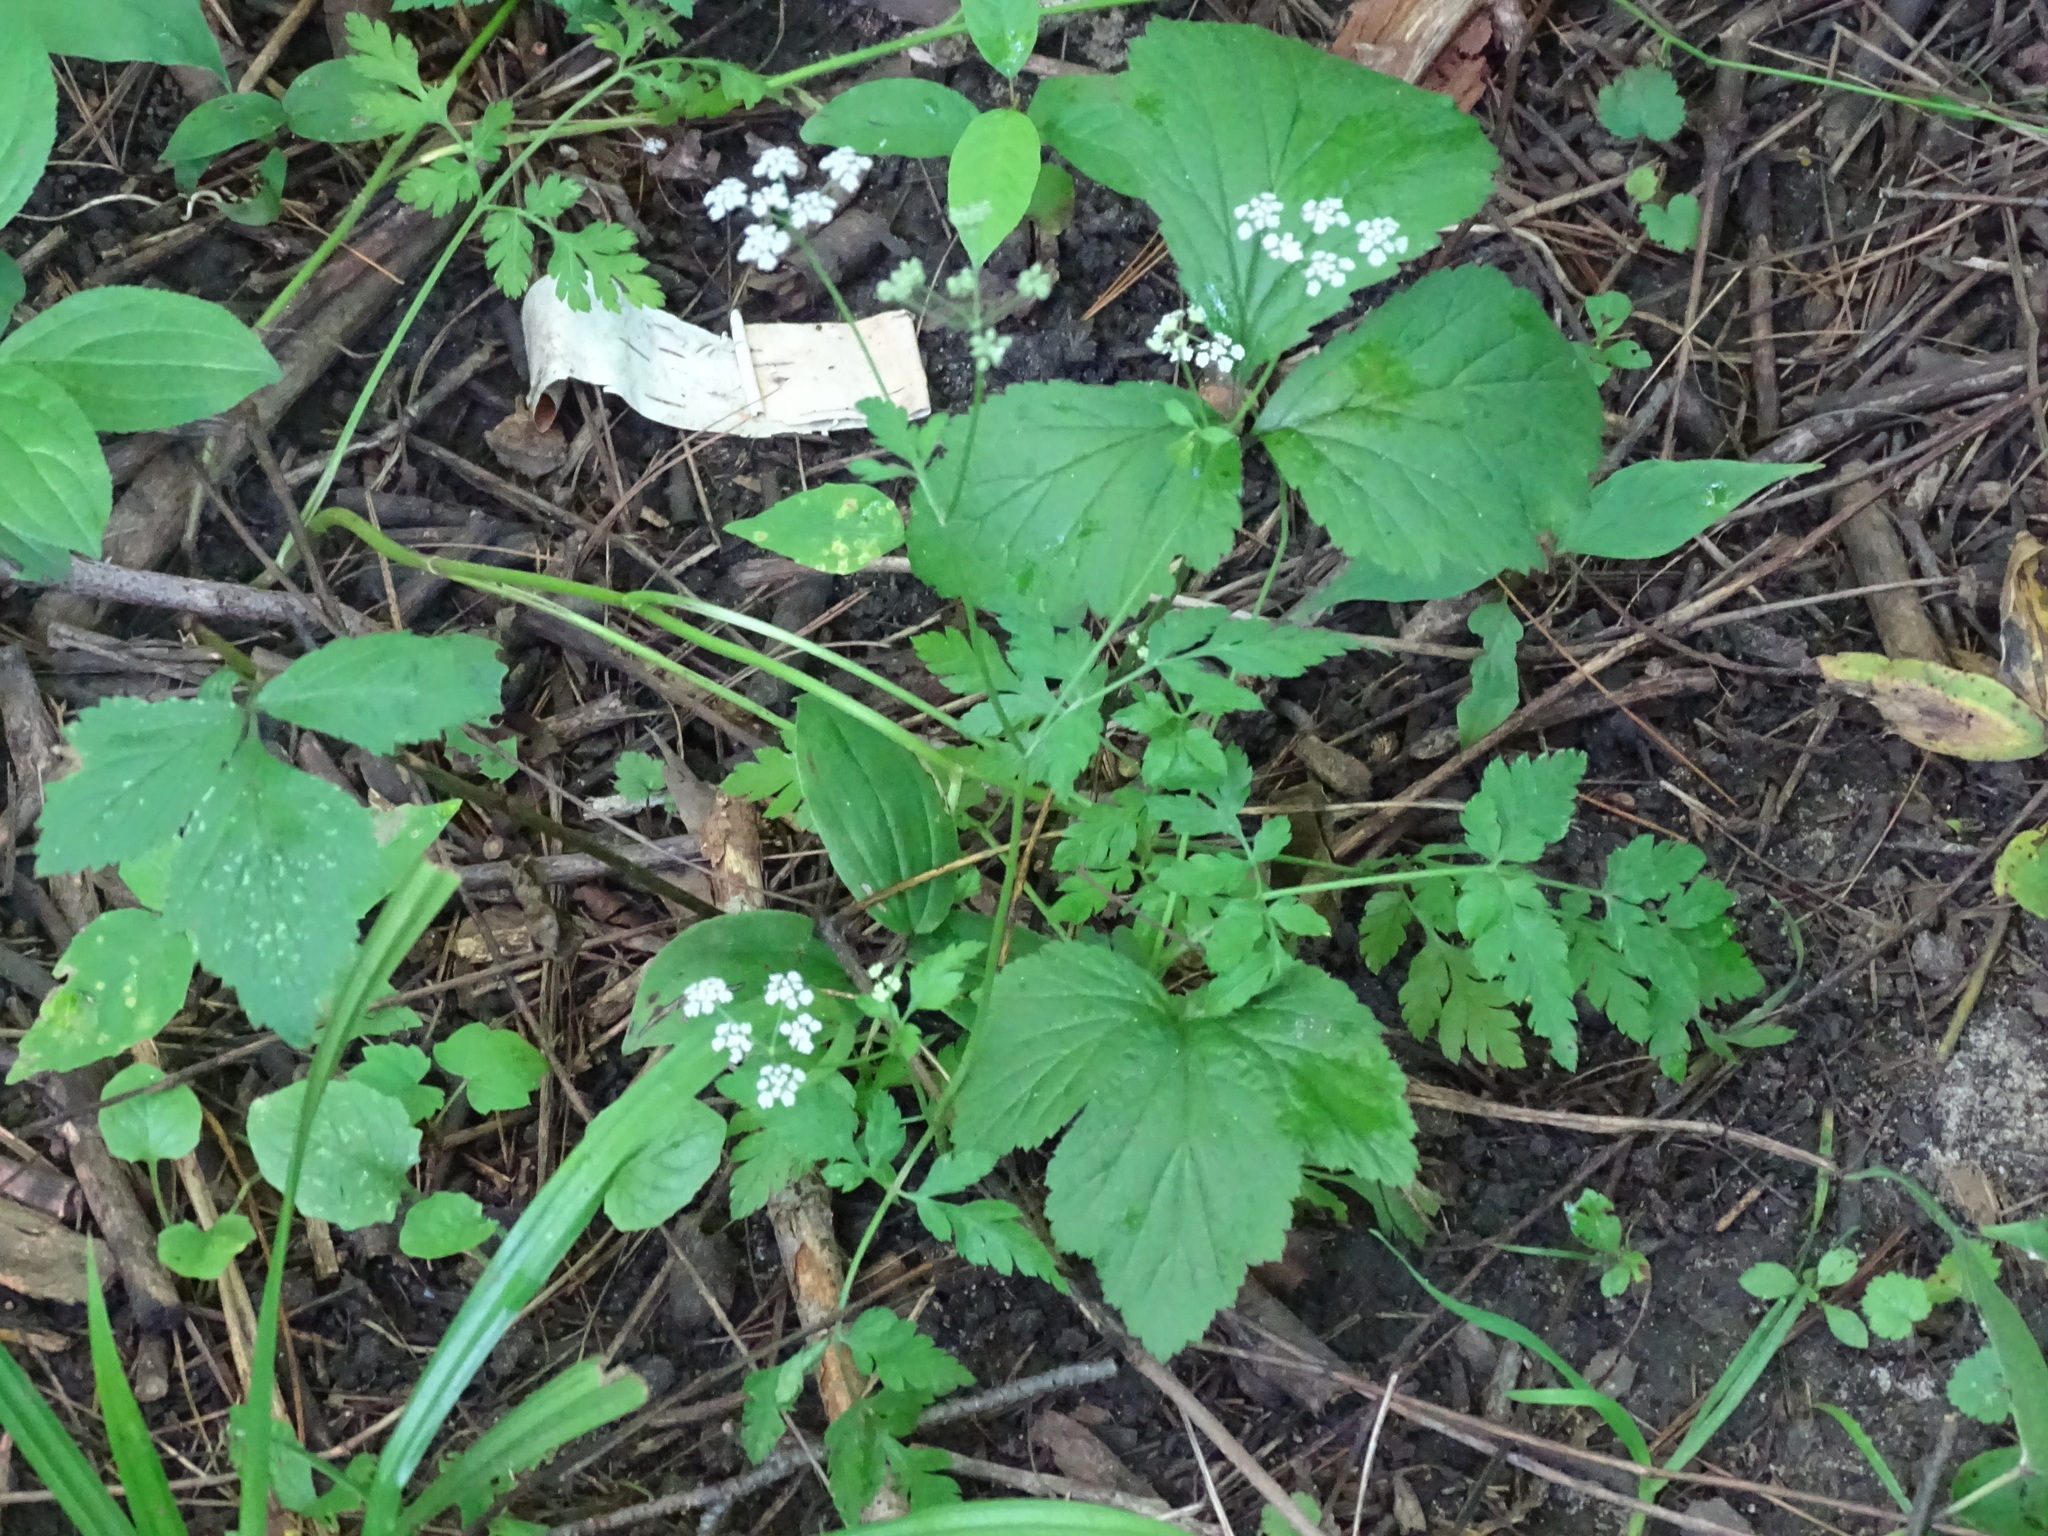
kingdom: Plantae
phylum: Tracheophyta
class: Magnoliopsida
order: Apiales
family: Apiaceae
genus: Cryptotaenia
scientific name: Cryptotaenia canadensis
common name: Honewort
